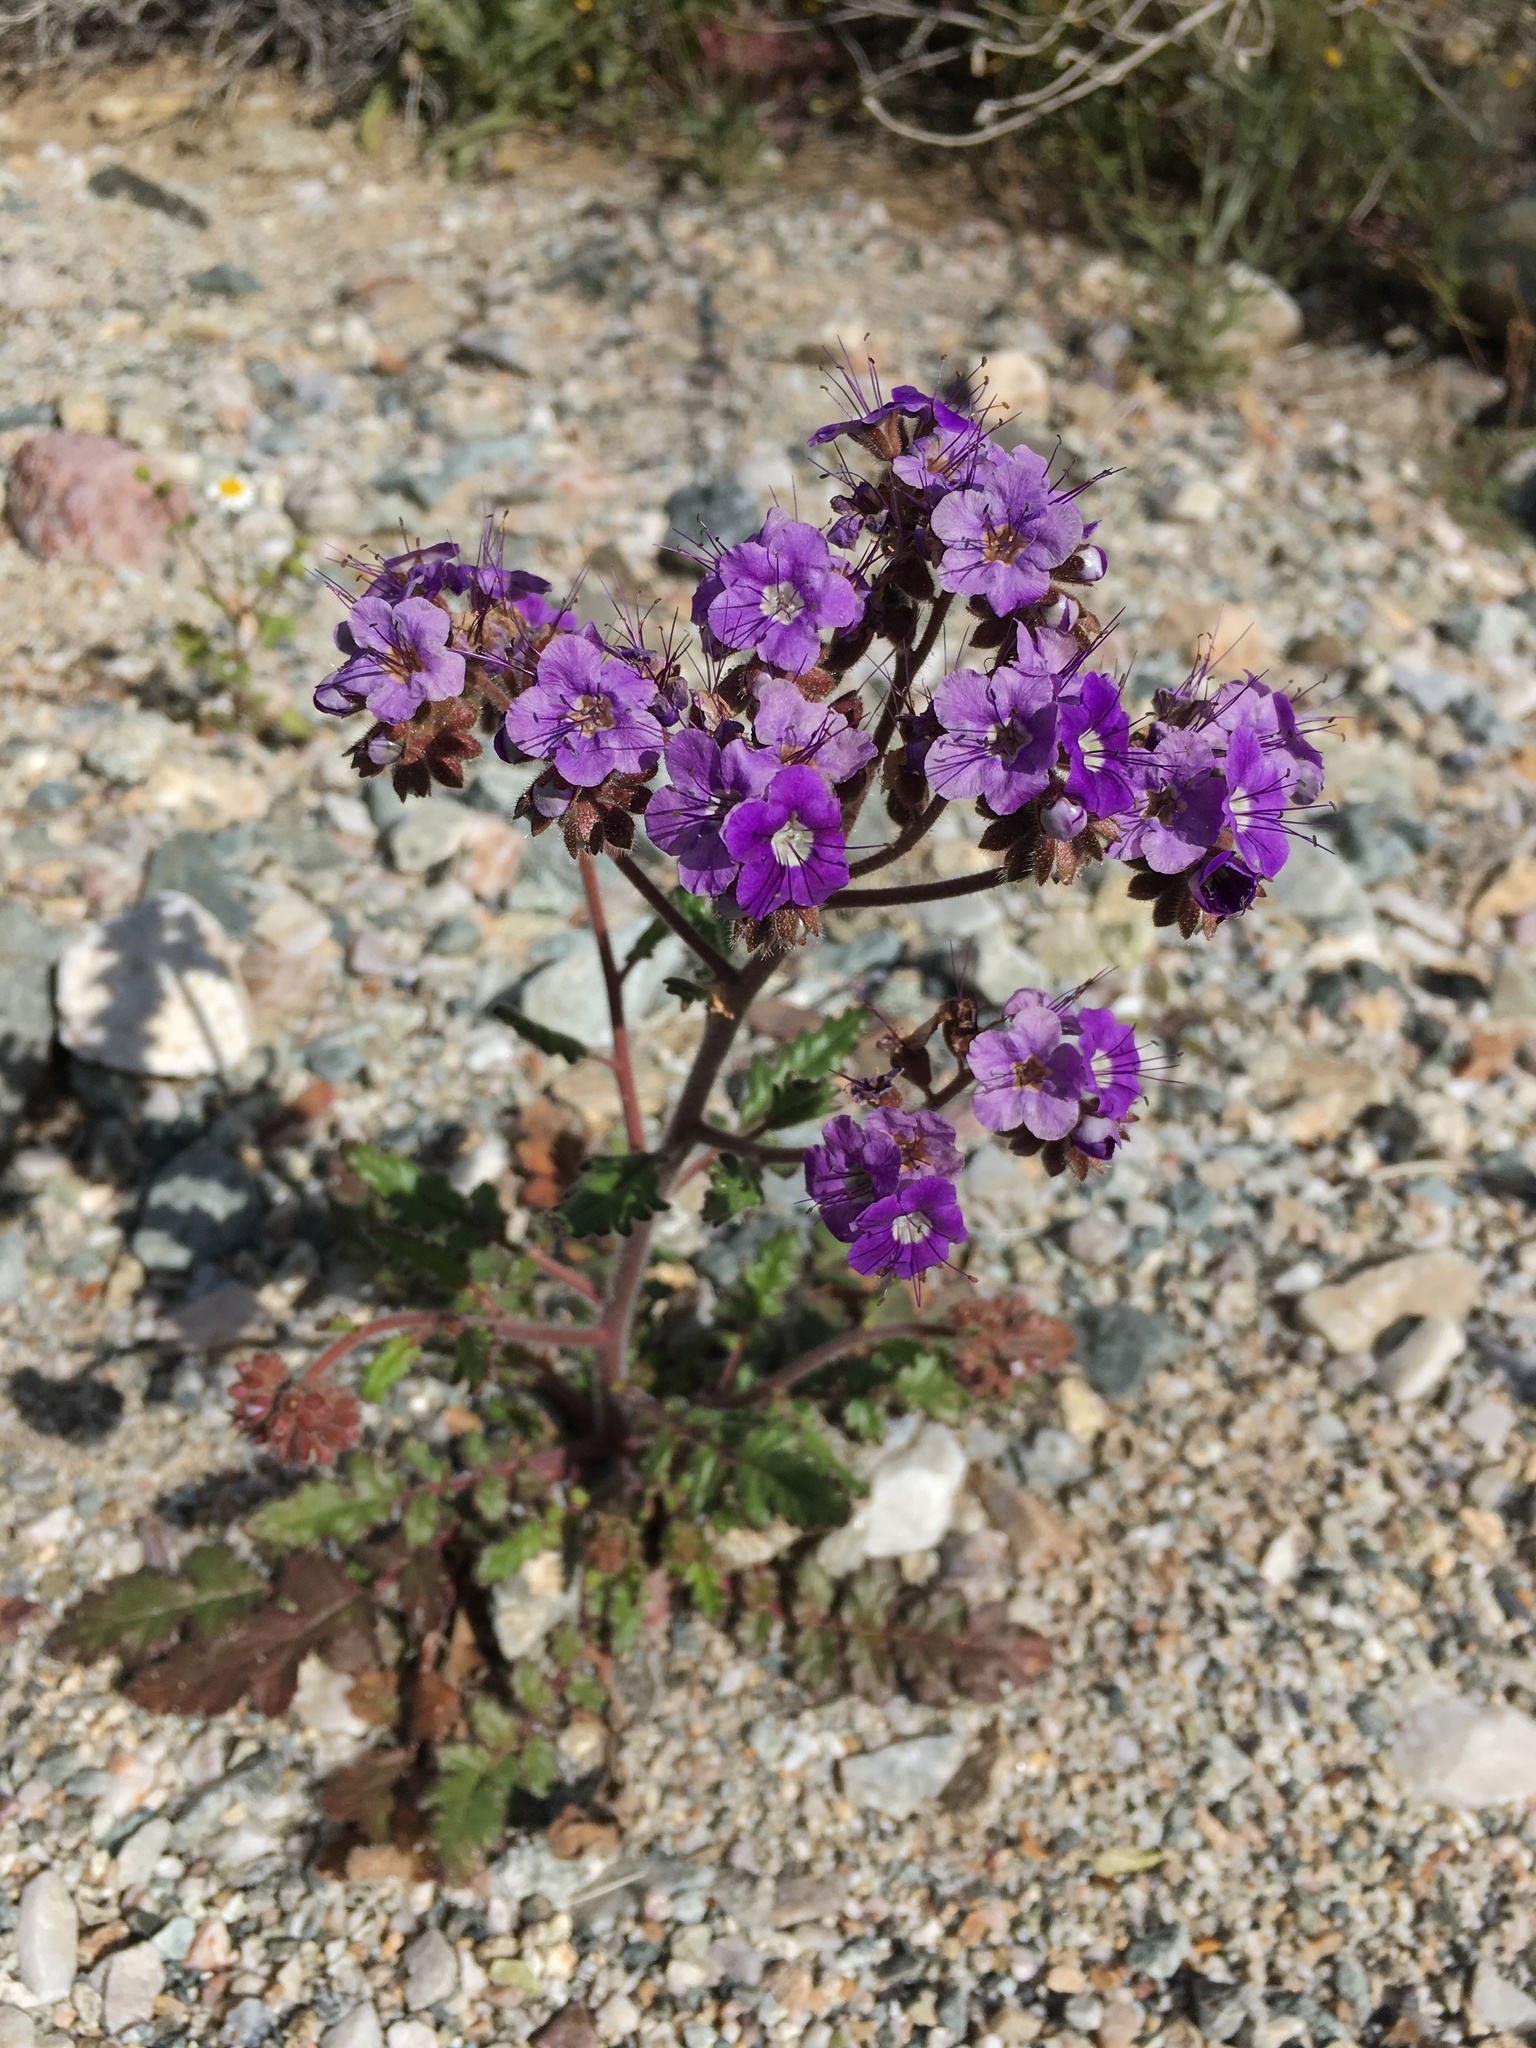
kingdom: Plantae
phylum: Tracheophyta
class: Magnoliopsida
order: Boraginales
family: Hydrophyllaceae
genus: Phacelia
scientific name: Phacelia crenulata
